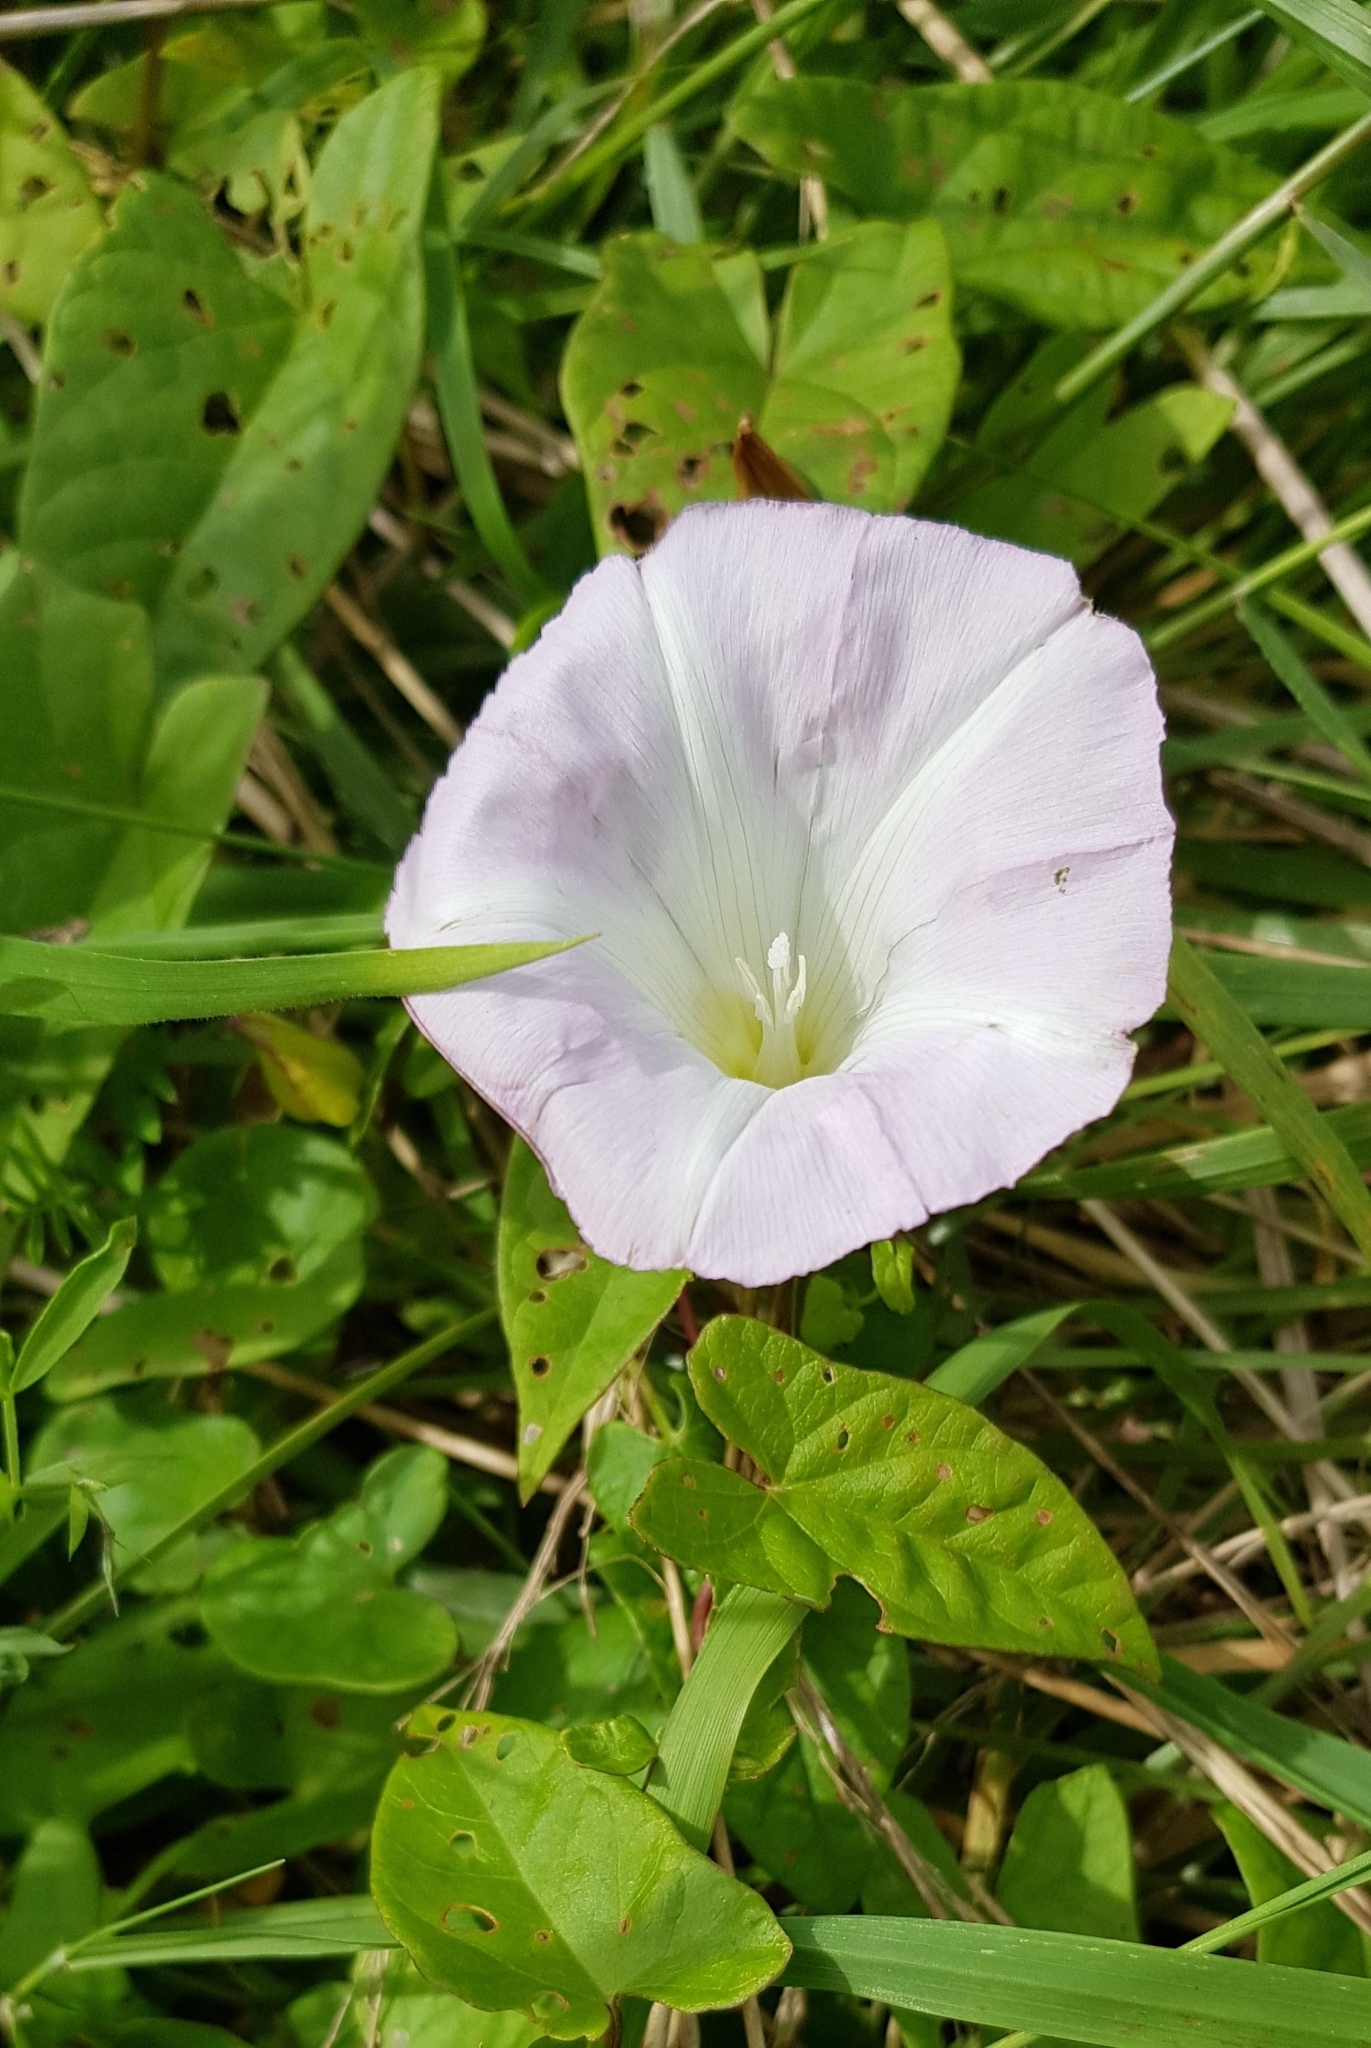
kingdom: Plantae
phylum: Tracheophyta
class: Magnoliopsida
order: Solanales
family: Convolvulaceae
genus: Calystegia
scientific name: Calystegia sepium
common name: Hedge bindweed
